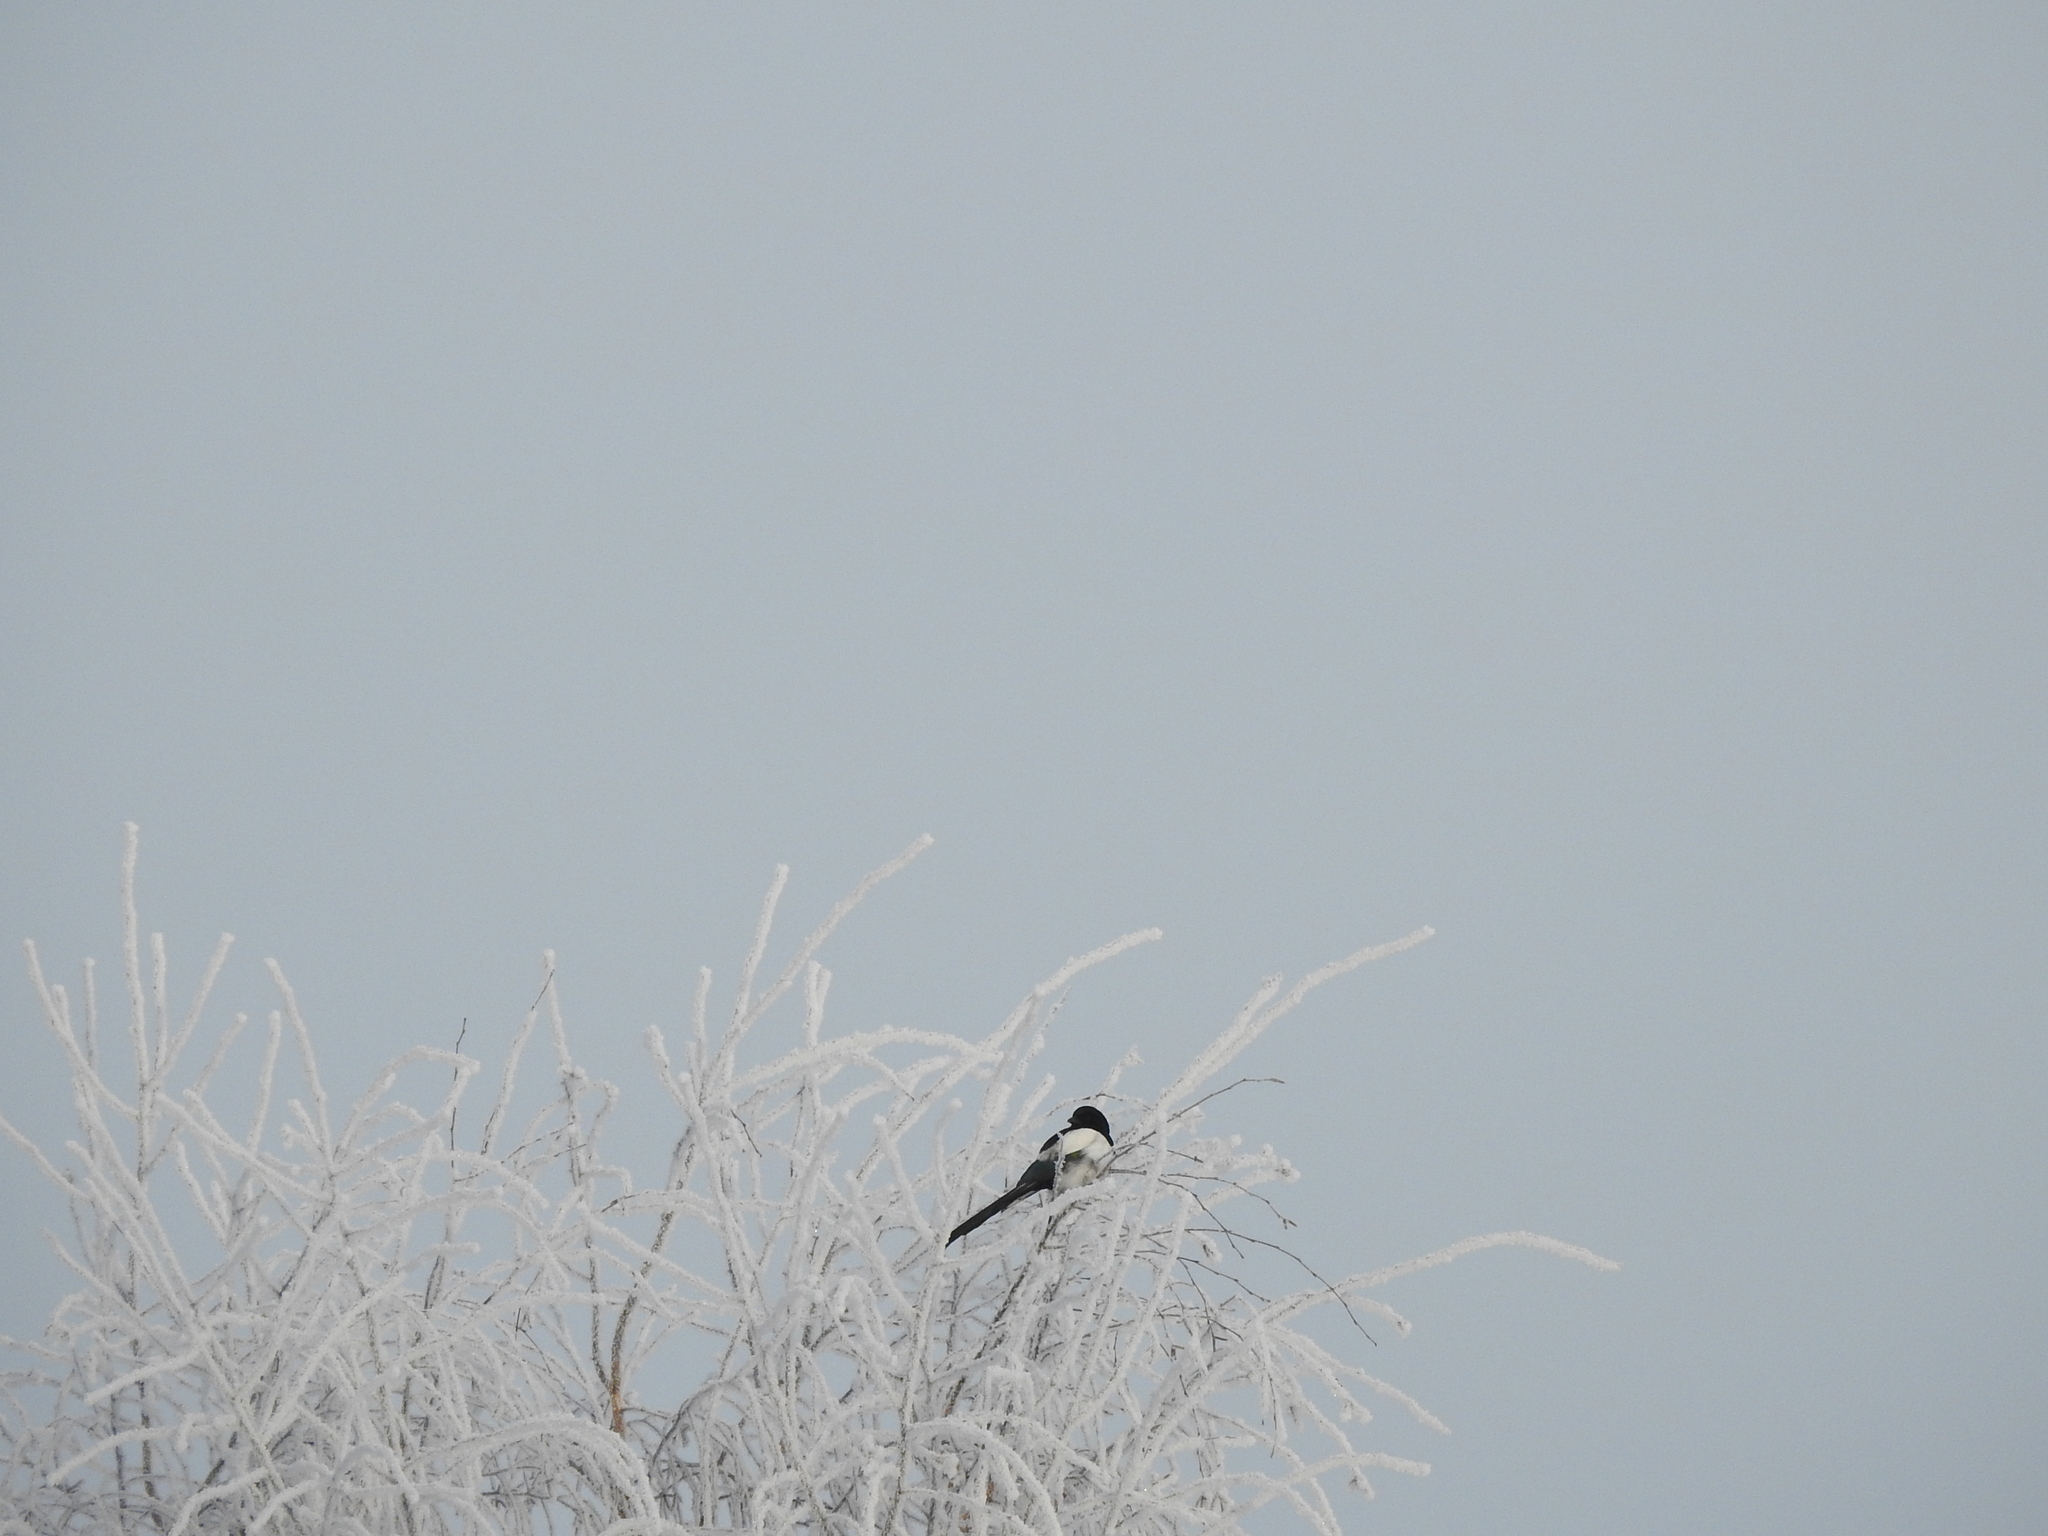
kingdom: Animalia
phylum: Chordata
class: Aves
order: Passeriformes
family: Corvidae
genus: Pica
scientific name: Pica pica
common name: Eurasian magpie
